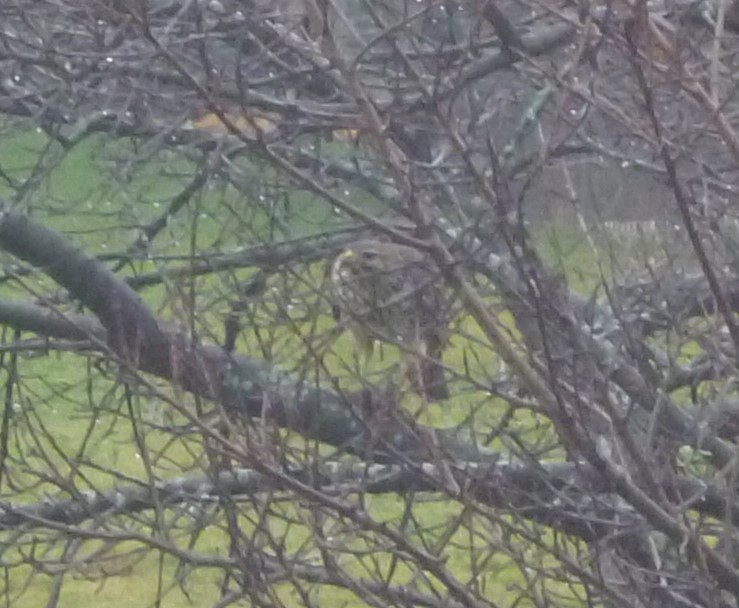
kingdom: Animalia
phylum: Chordata
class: Aves
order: Accipitriformes
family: Accipitridae
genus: Buteo
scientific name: Buteo jamaicensis
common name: Red-tailed hawk
